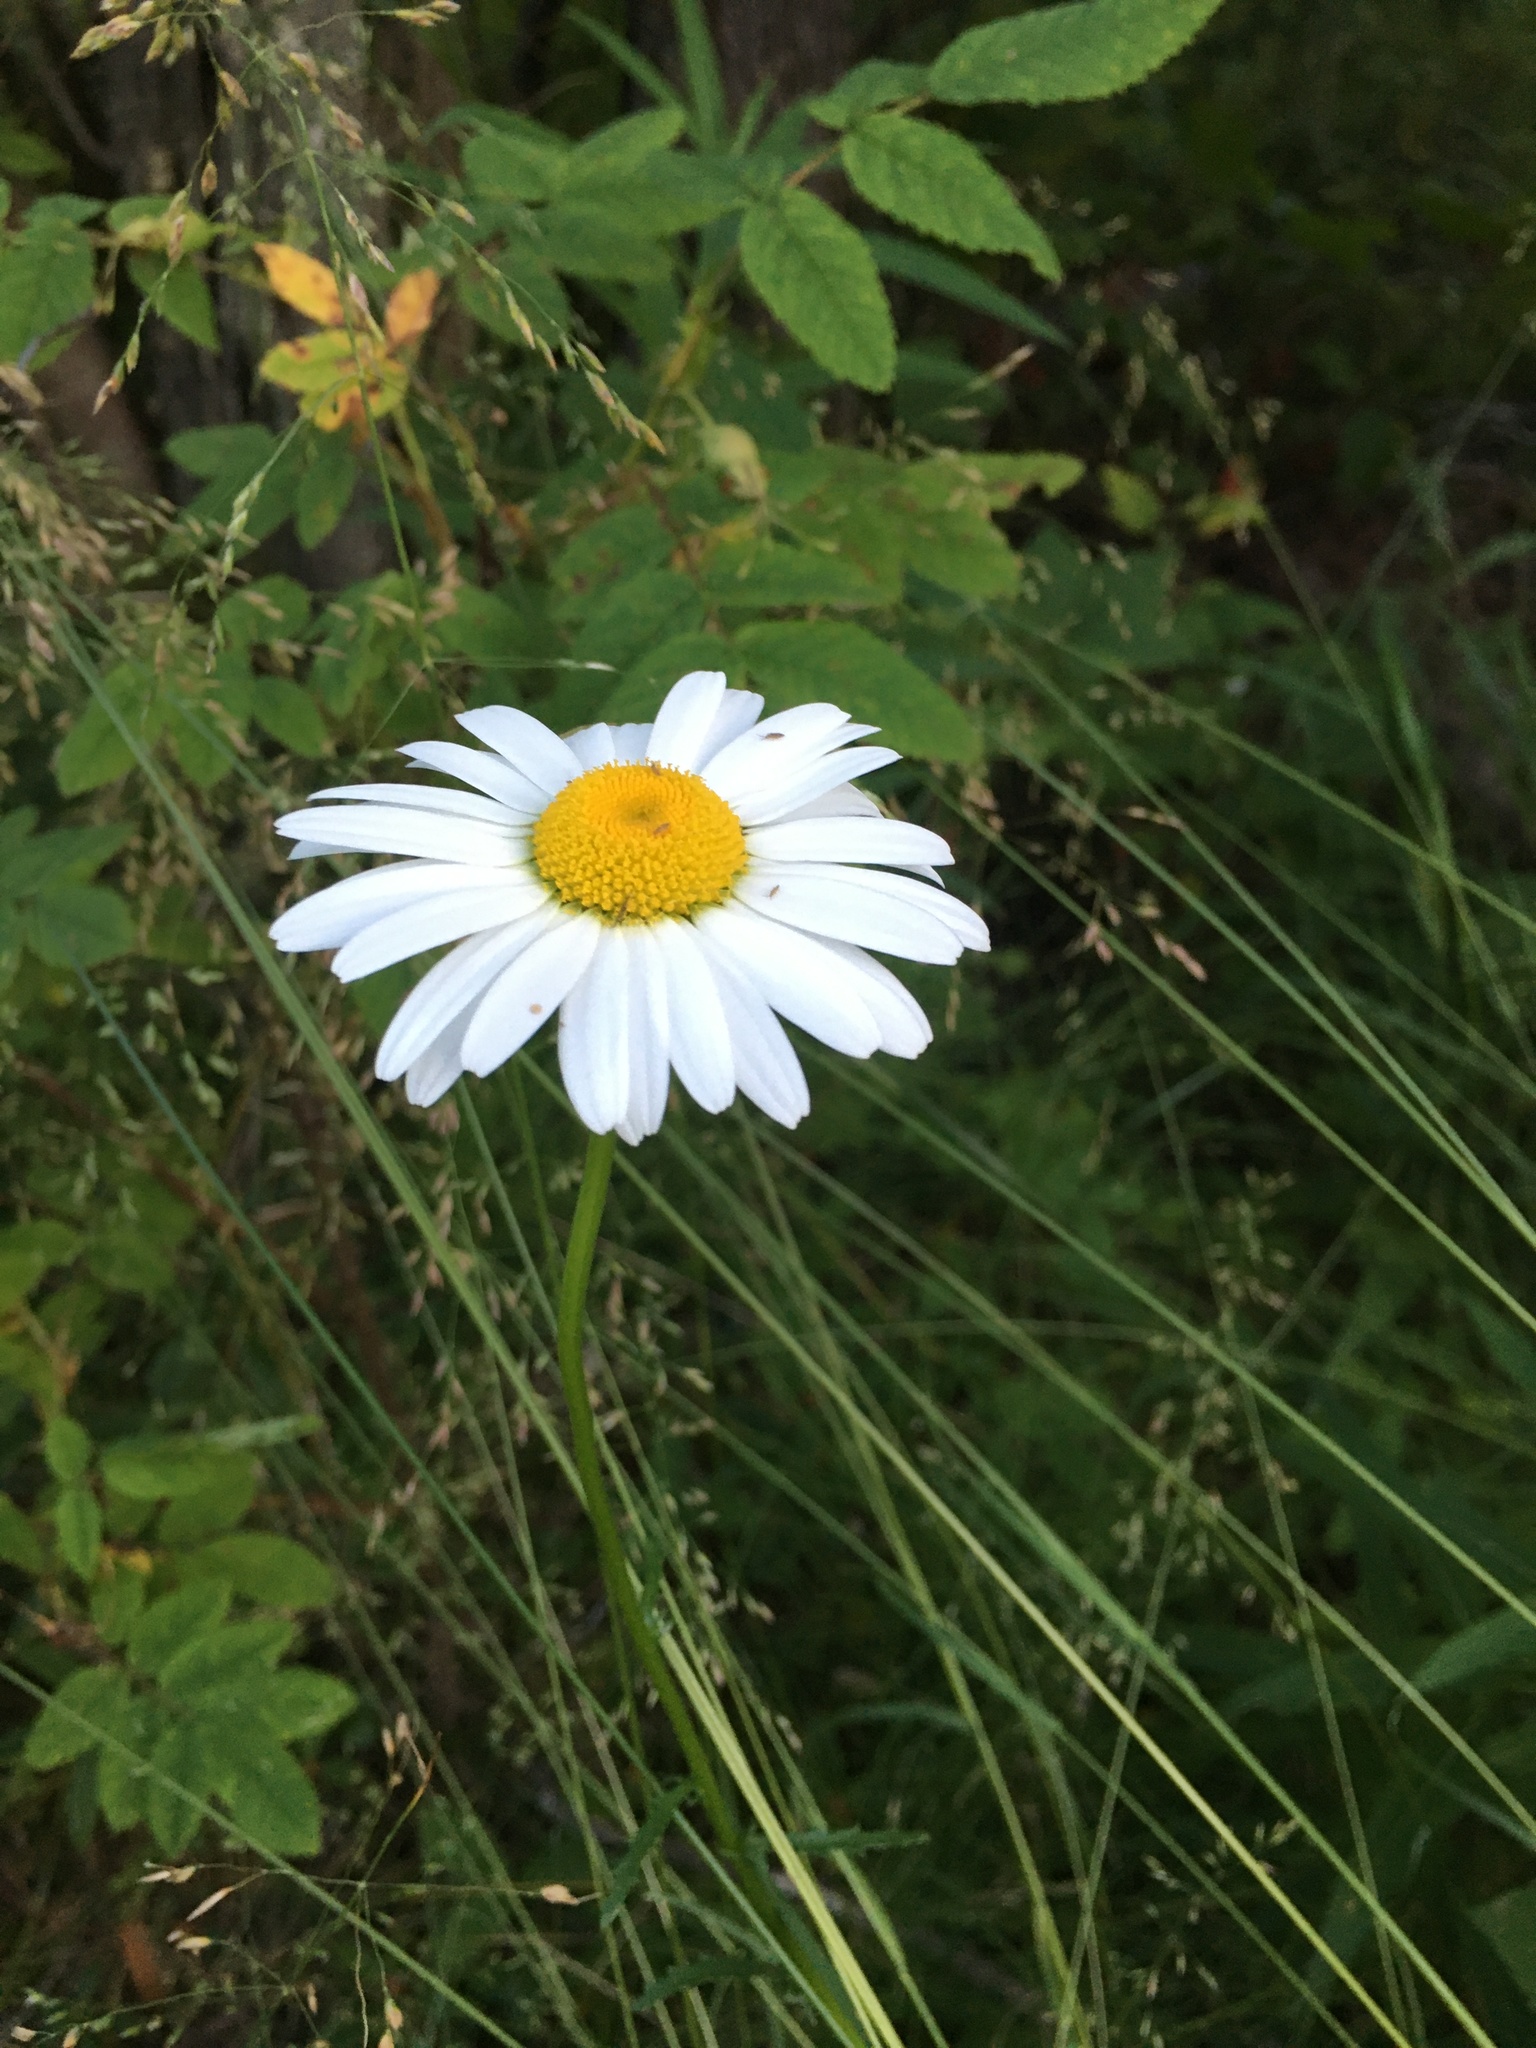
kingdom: Plantae
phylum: Tracheophyta
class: Magnoliopsida
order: Asterales
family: Asteraceae
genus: Leucanthemum
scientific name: Leucanthemum vulgare
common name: Oxeye daisy
